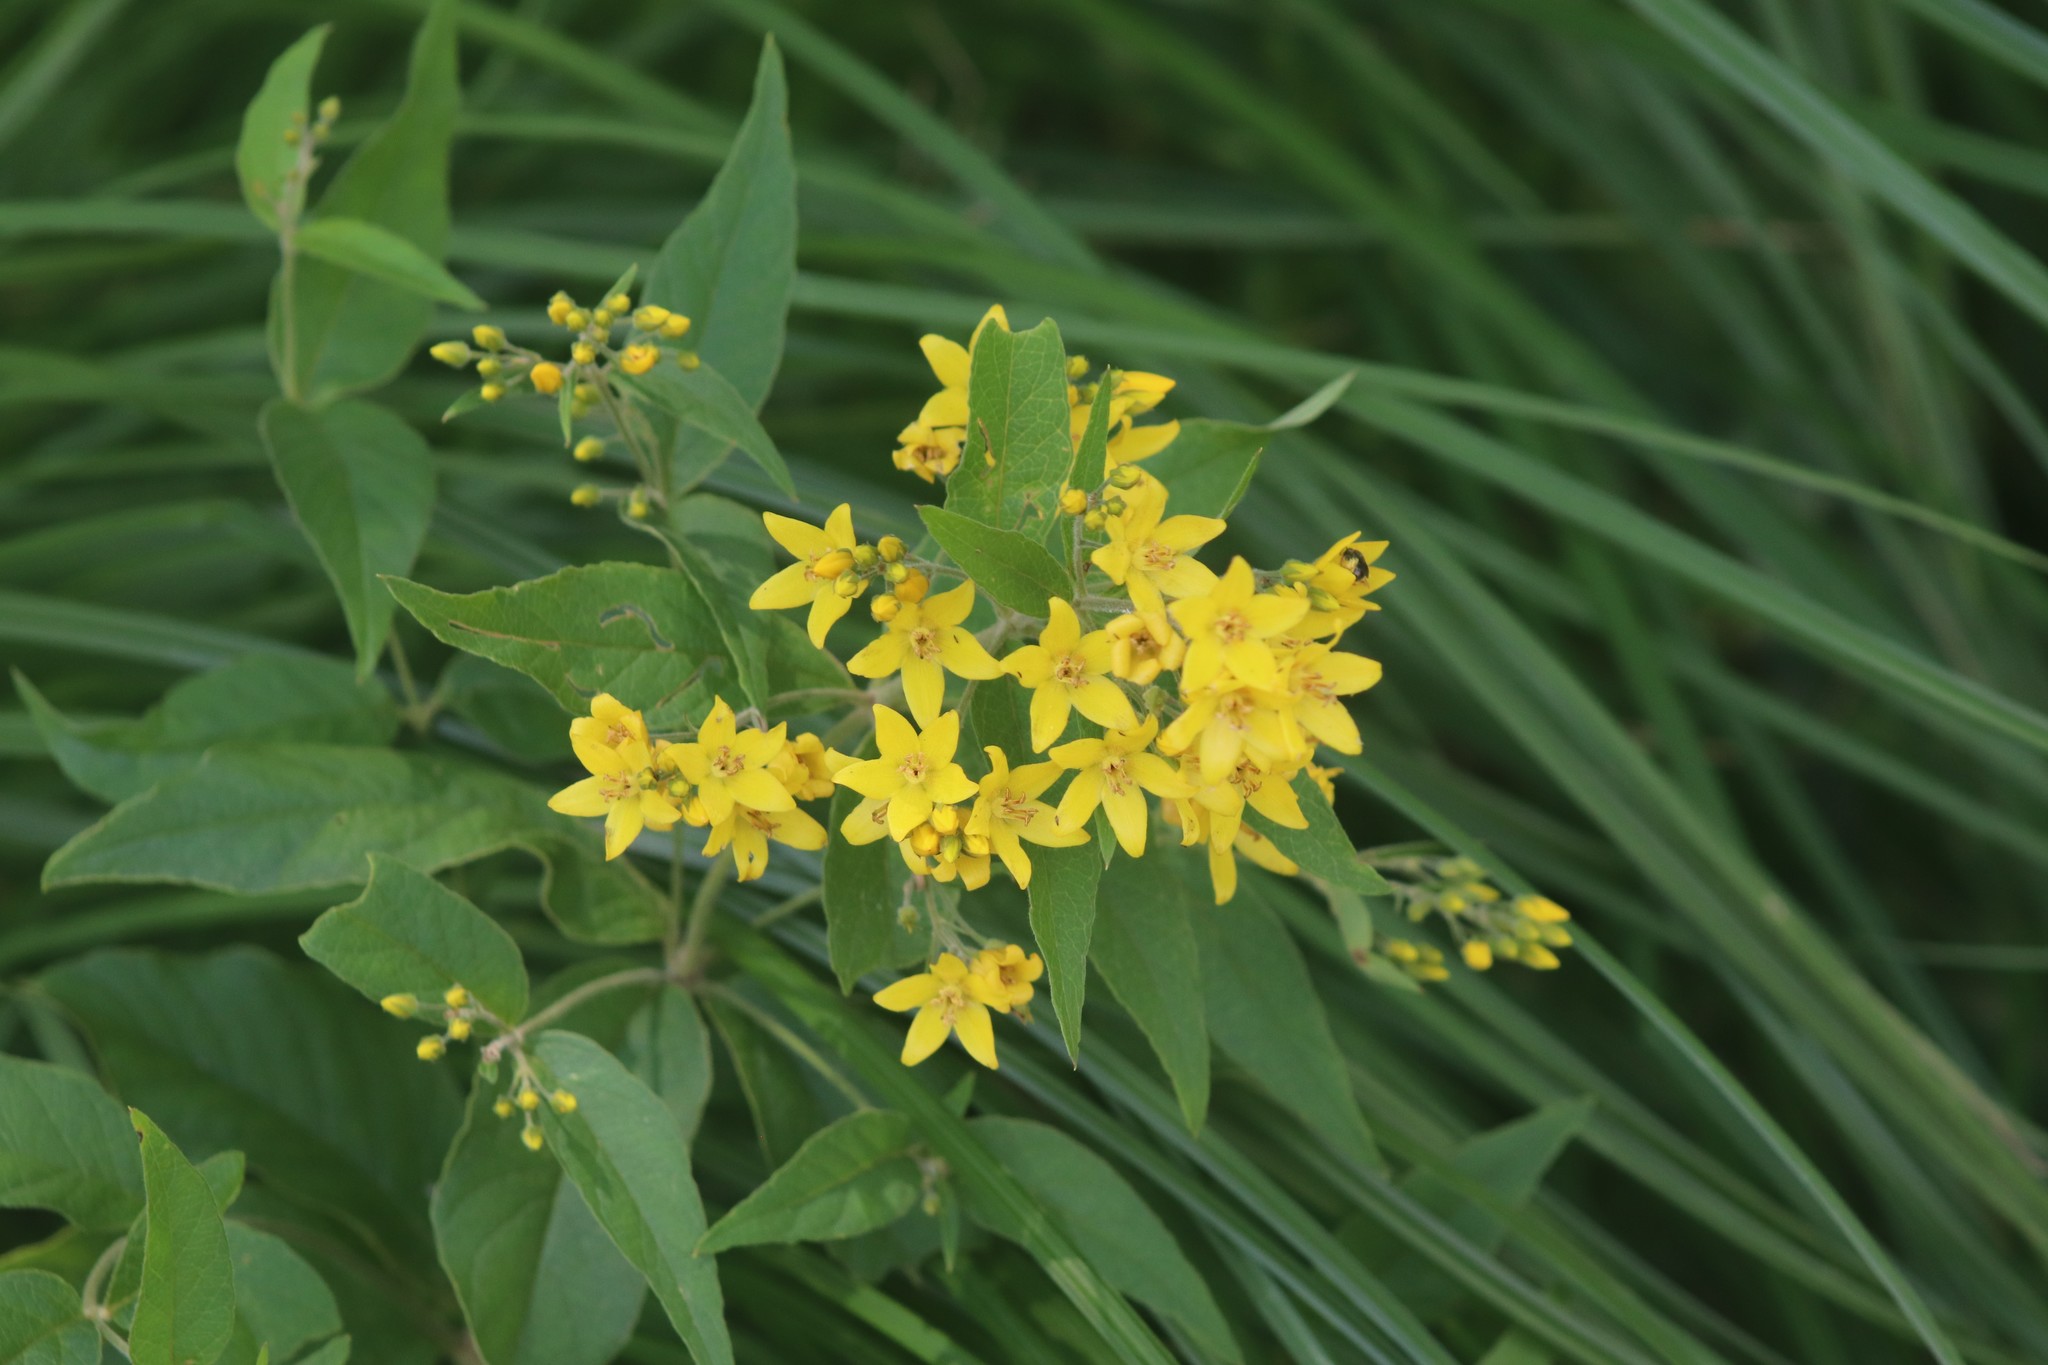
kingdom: Plantae
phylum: Tracheophyta
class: Magnoliopsida
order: Ericales
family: Primulaceae
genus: Lysimachia
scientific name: Lysimachia vulgaris
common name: Yellow loosestrife
